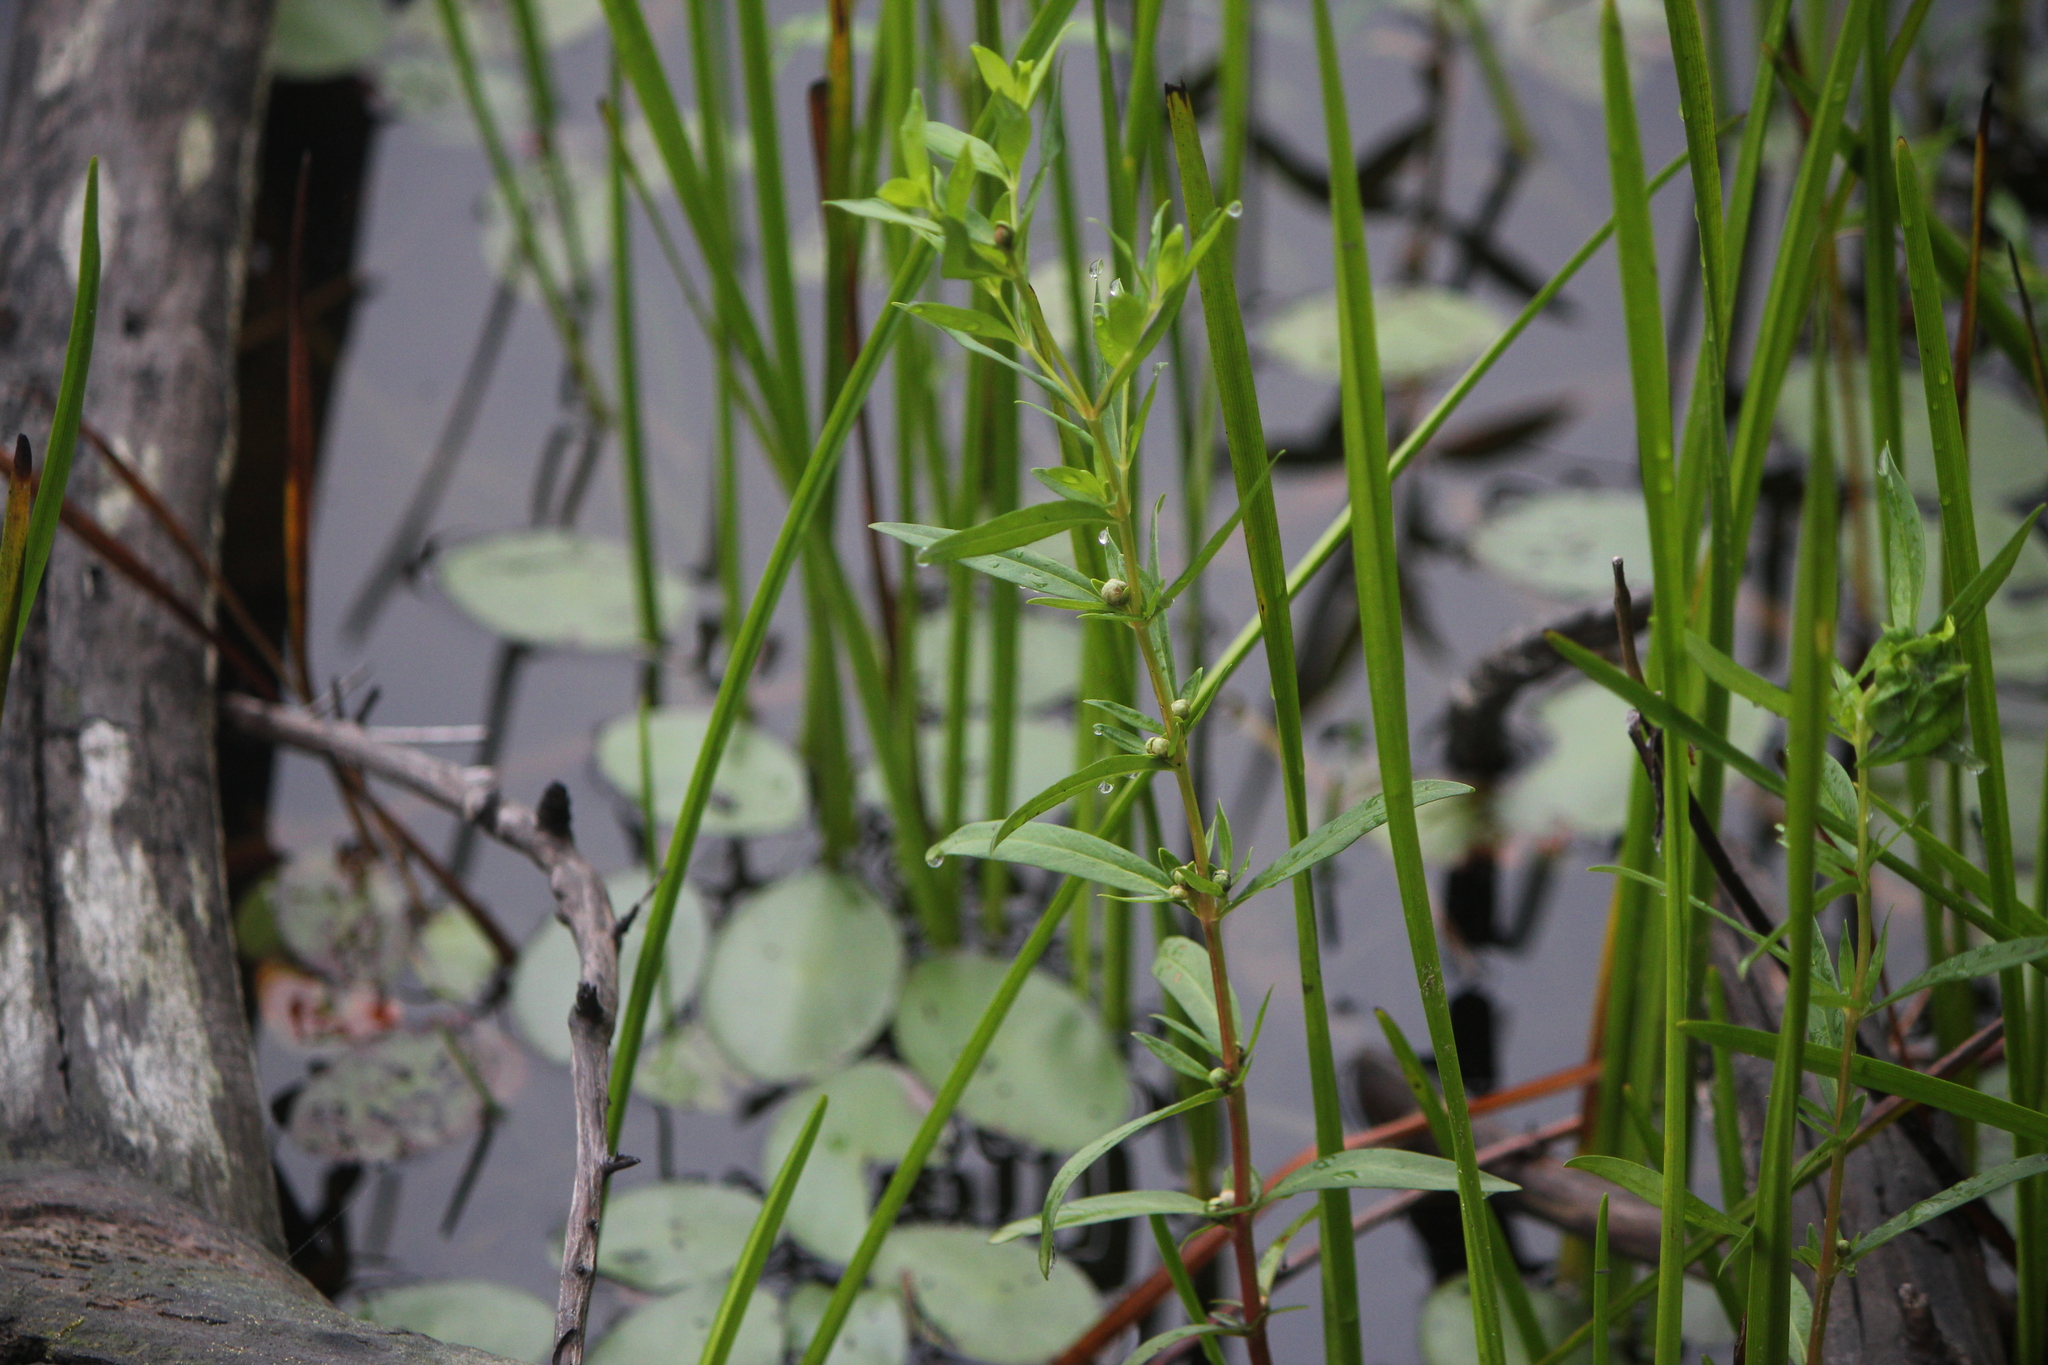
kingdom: Plantae
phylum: Tracheophyta
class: Magnoliopsida
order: Ericales
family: Primulaceae
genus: Lysimachia
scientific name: Lysimachia terrestris
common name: Lake loosestrife
